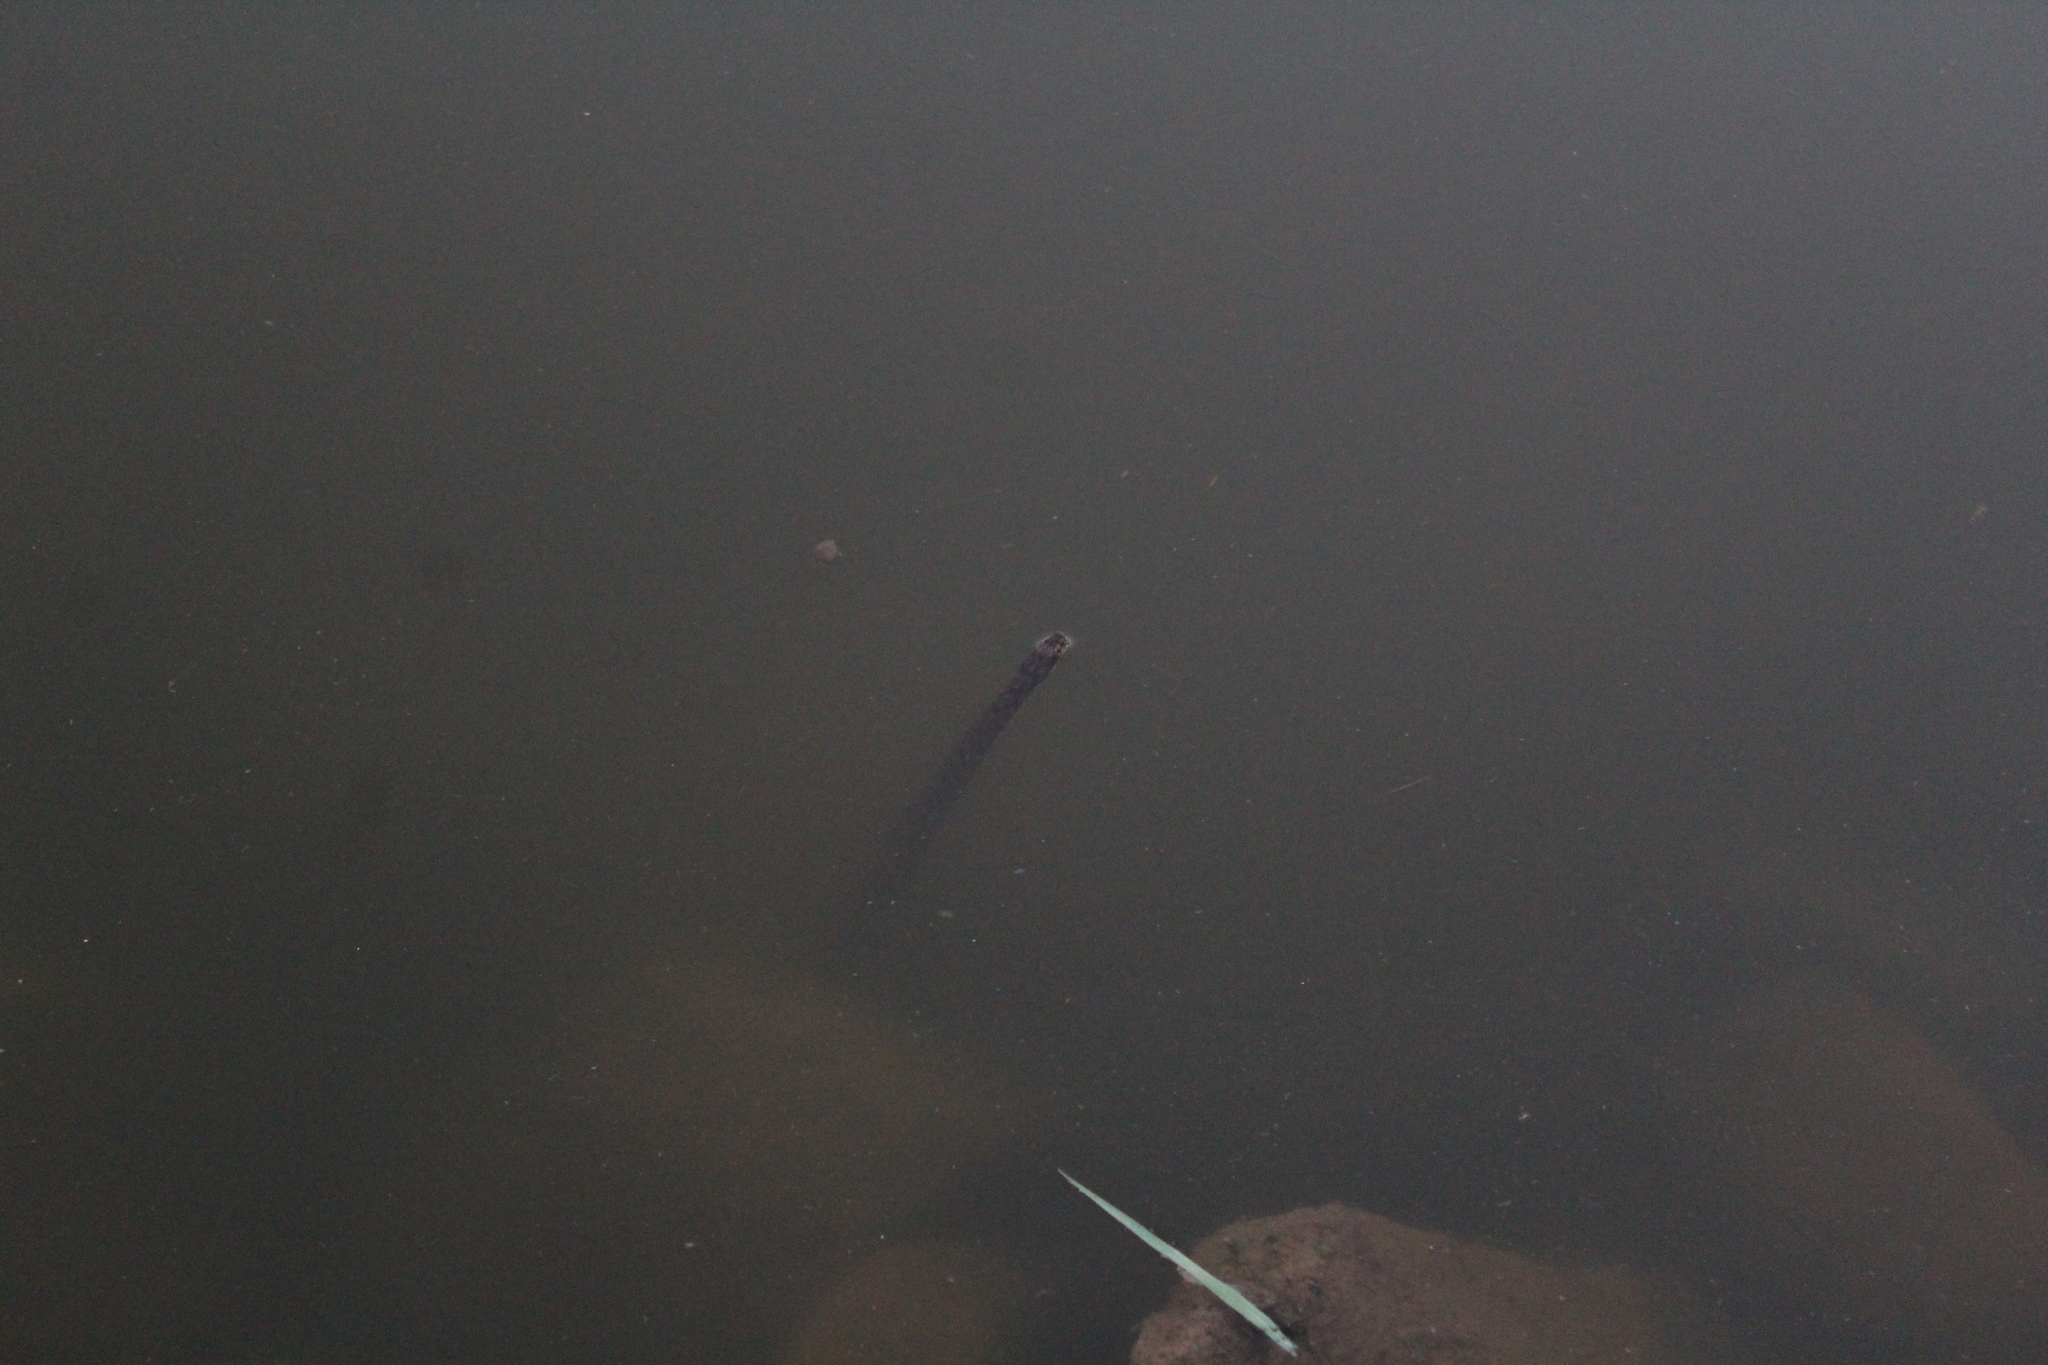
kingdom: Animalia
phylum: Chordata
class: Squamata
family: Colubridae
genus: Nerodia
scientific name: Nerodia rhombifer
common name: Diamondback water snake
